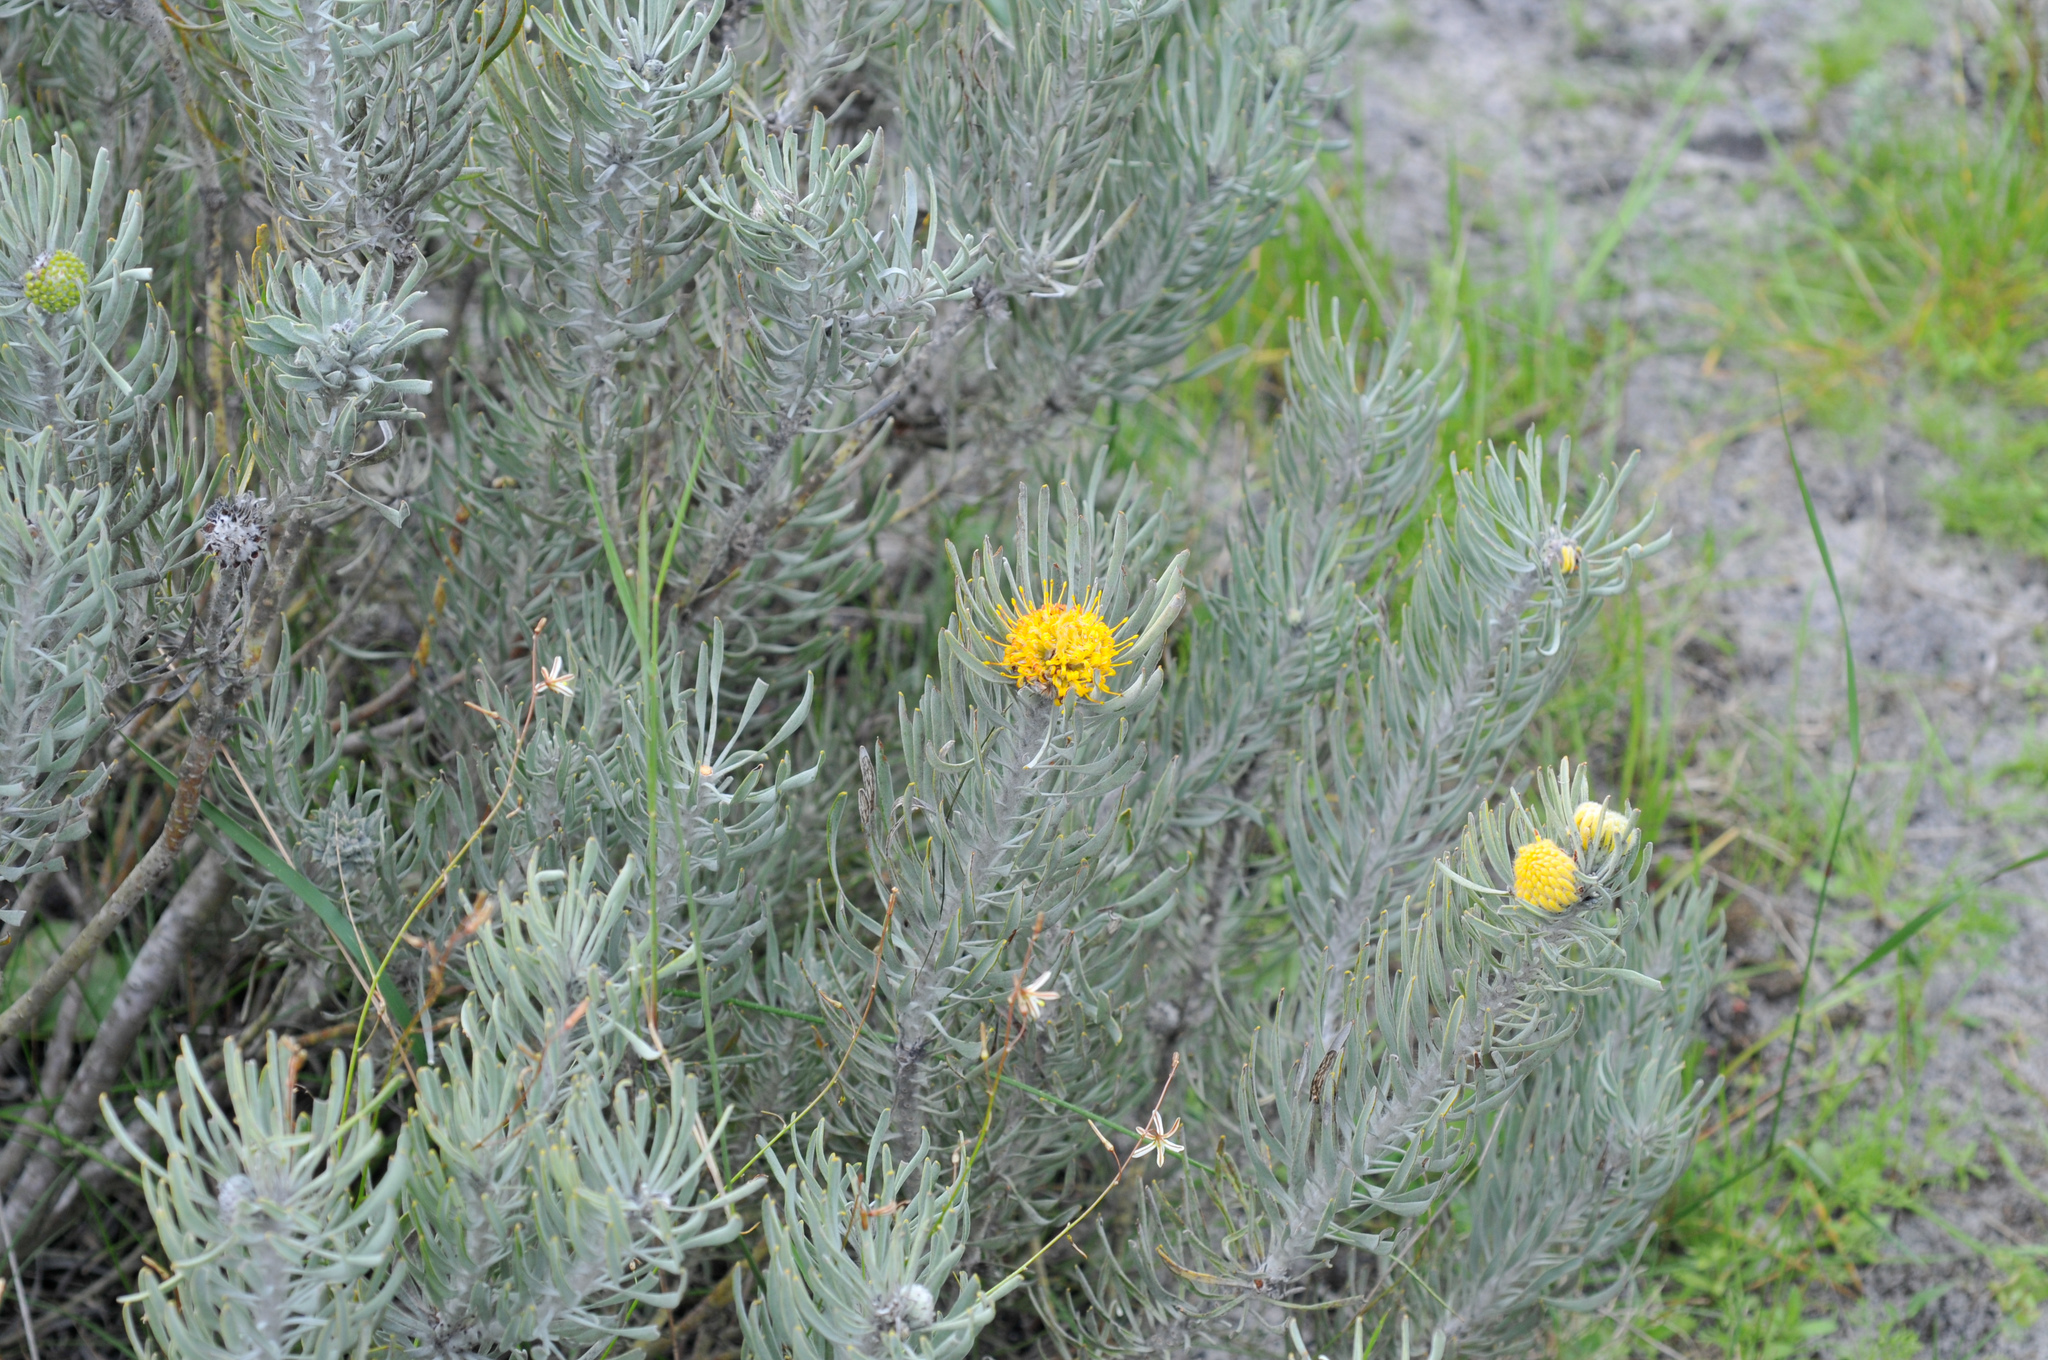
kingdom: Plantae
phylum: Tracheophyta
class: Magnoliopsida
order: Proteales
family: Proteaceae
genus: Leucospermum
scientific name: Leucospermum tomentosum
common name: Saldanha pincushion
